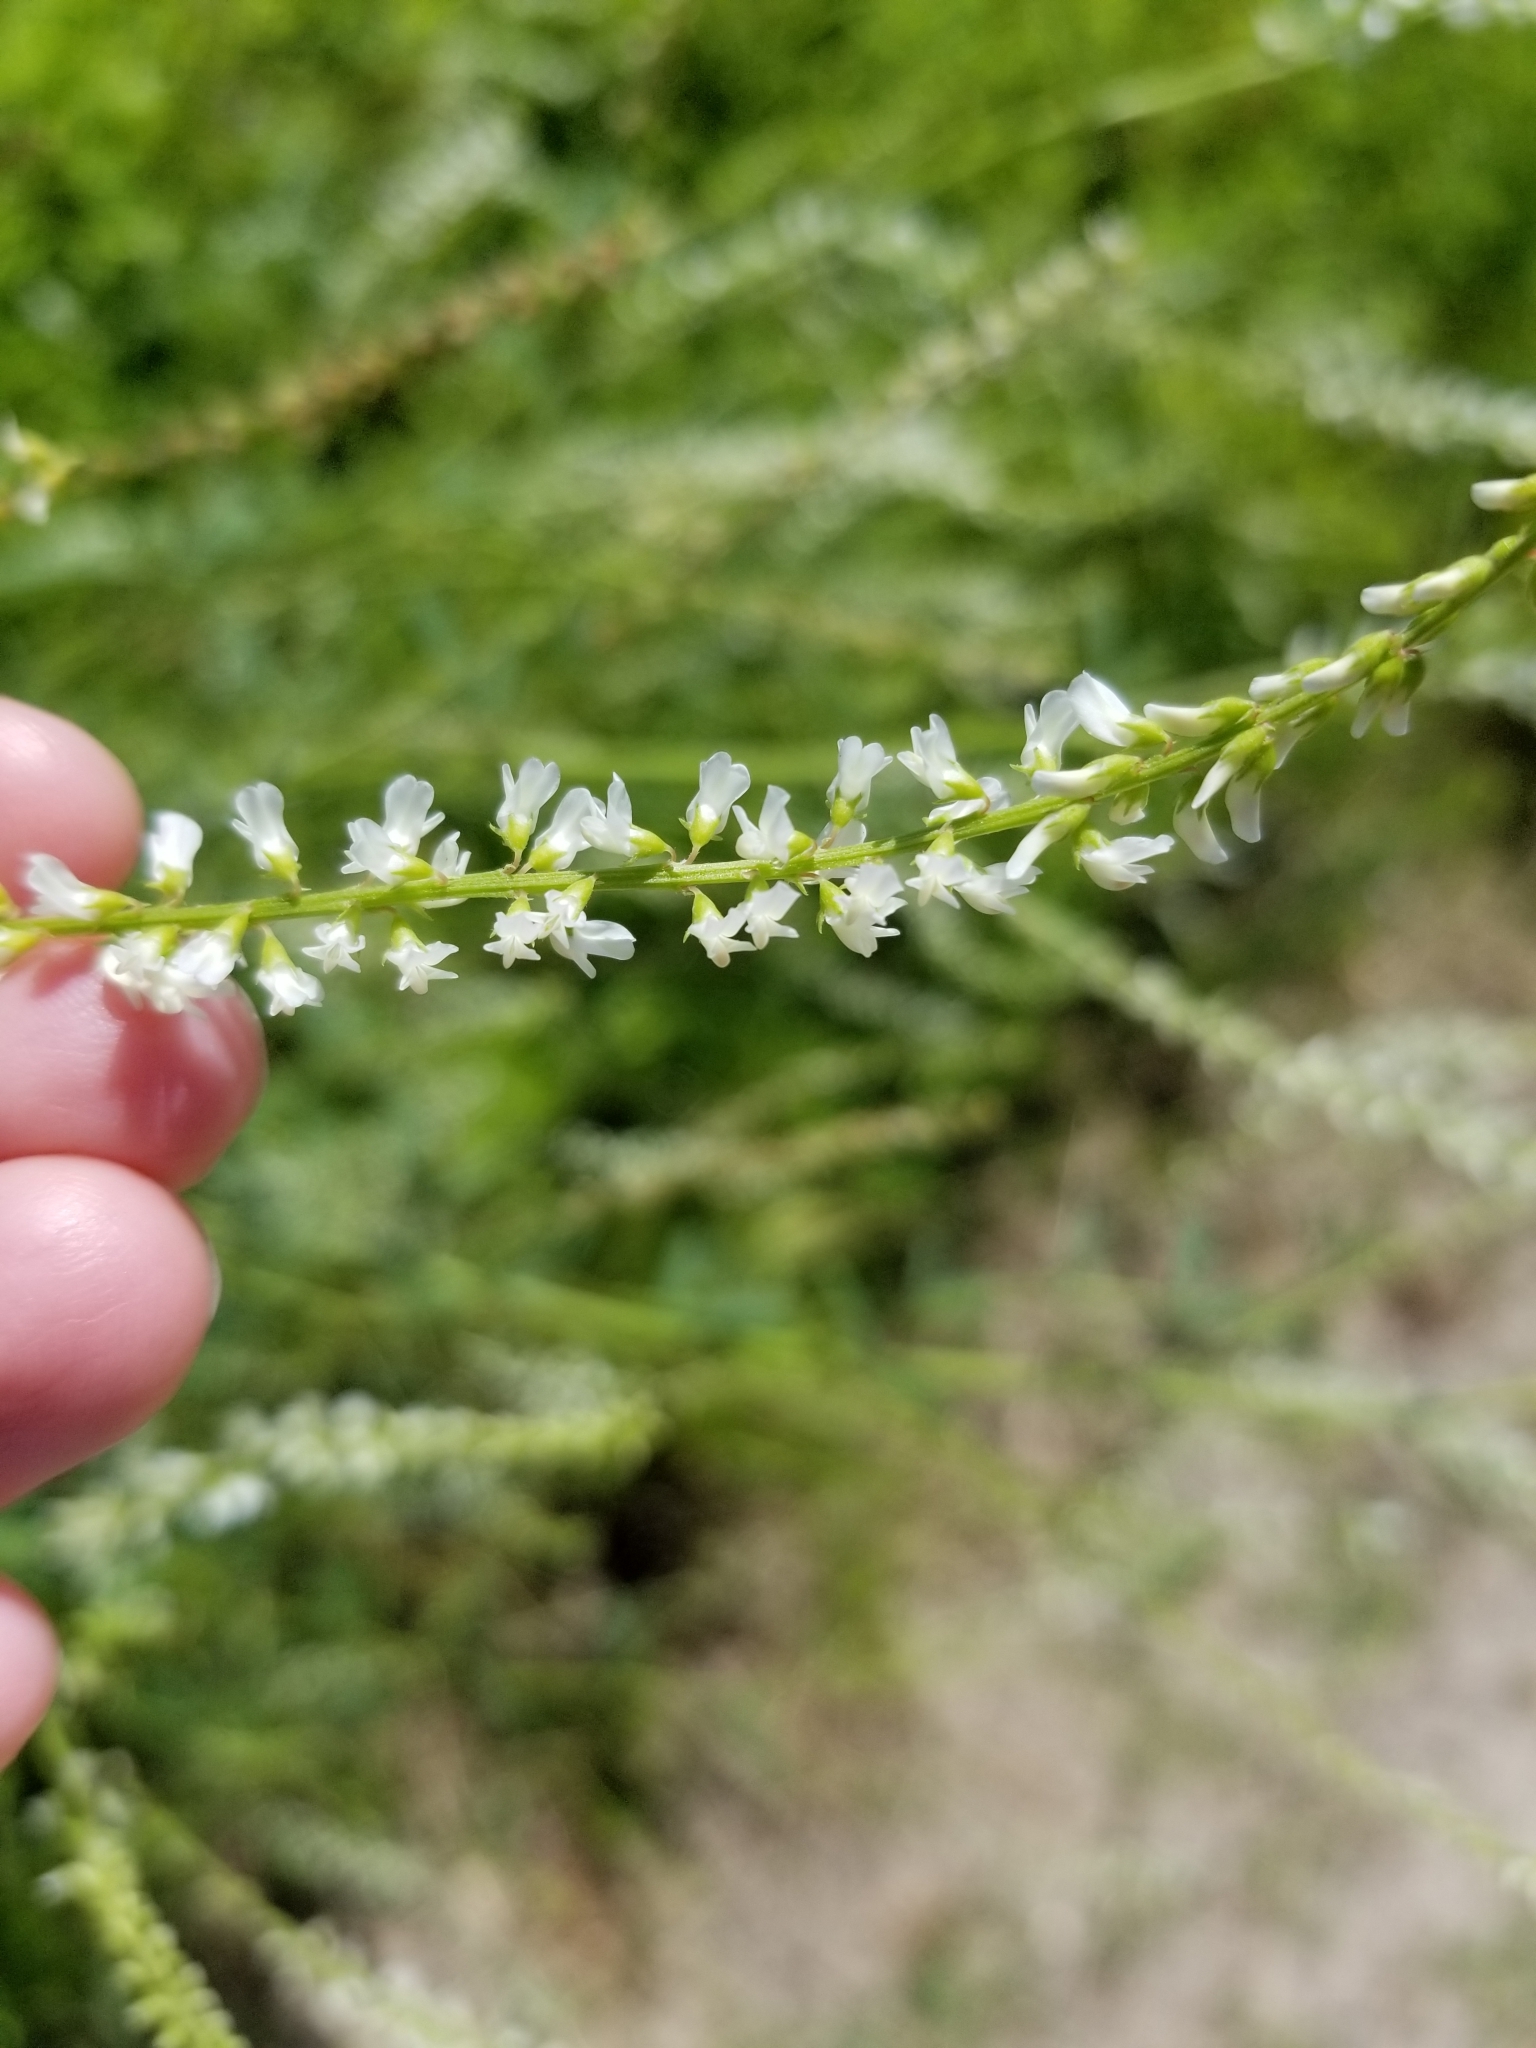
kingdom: Plantae
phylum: Tracheophyta
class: Magnoliopsida
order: Fabales
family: Fabaceae
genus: Melilotus
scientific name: Melilotus albus
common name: White melilot
